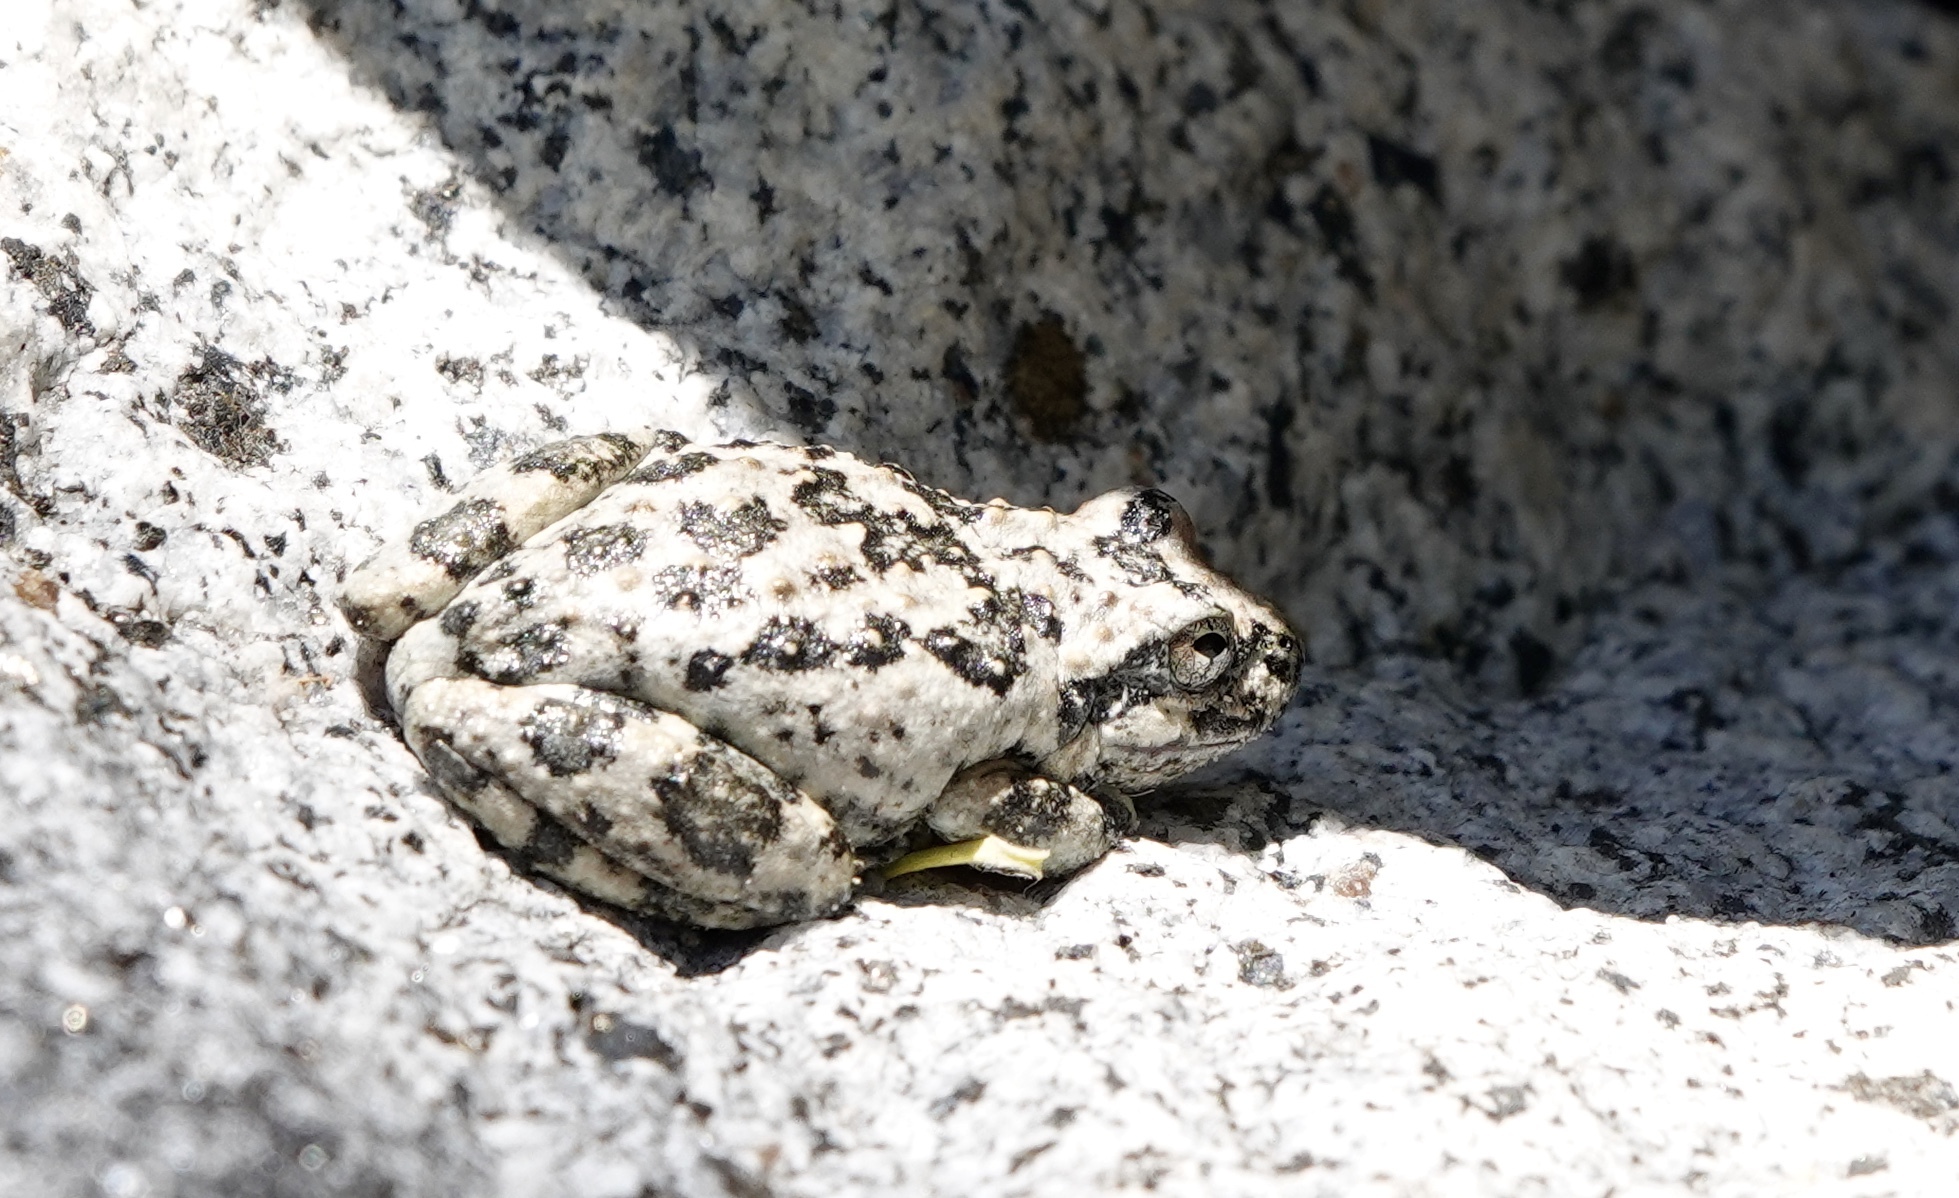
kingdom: Animalia
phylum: Chordata
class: Amphibia
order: Anura
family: Hylidae
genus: Pseudacris
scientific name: Pseudacris cadaverina
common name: California chorus frog
